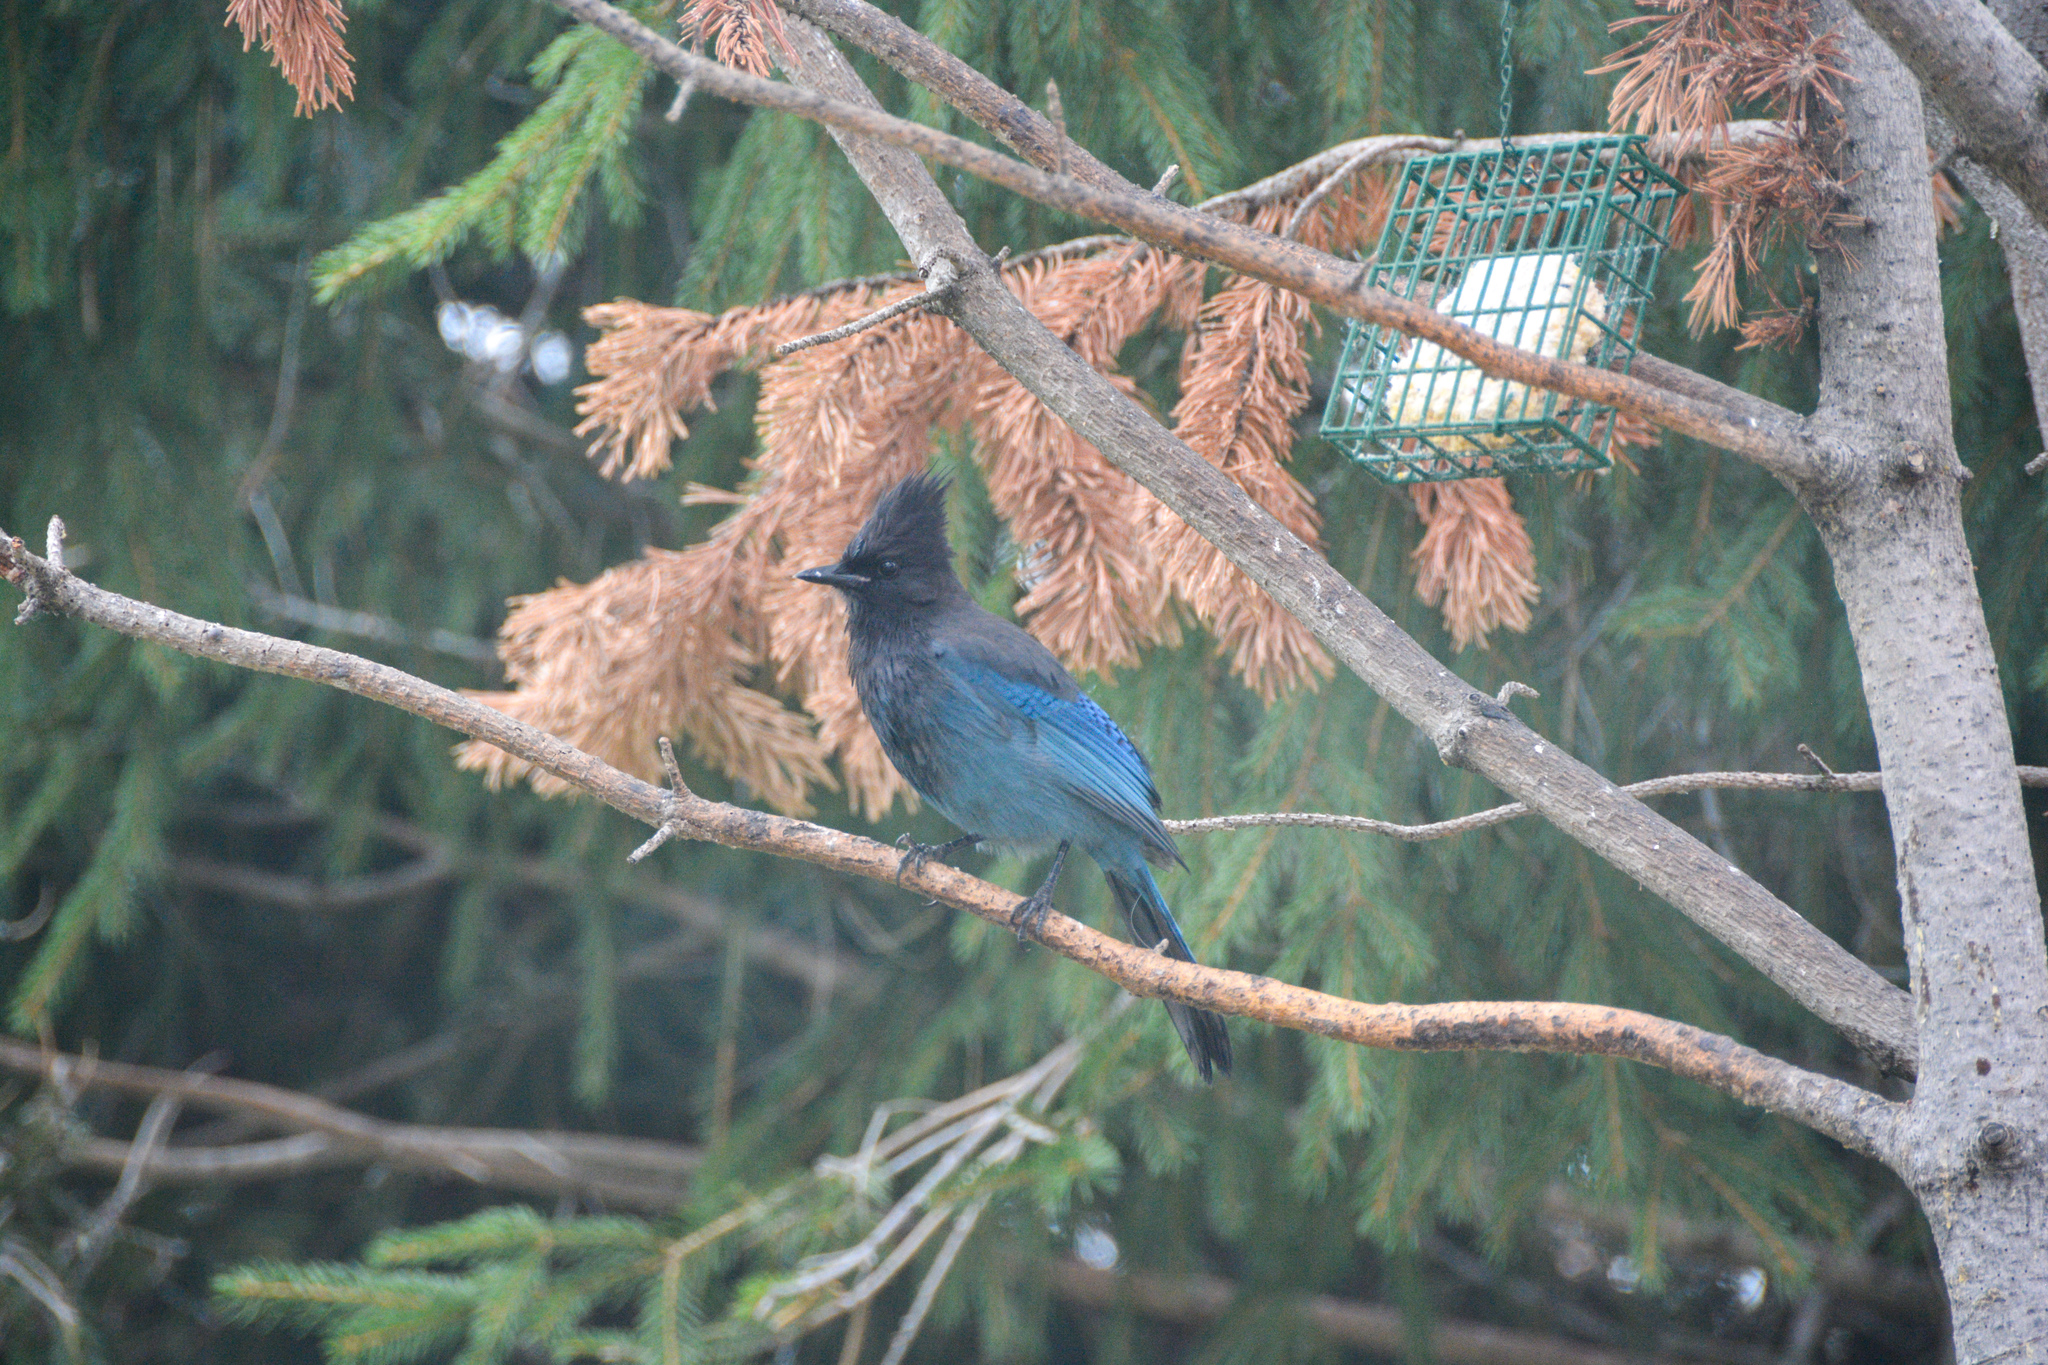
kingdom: Animalia
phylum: Chordata
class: Aves
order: Passeriformes
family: Corvidae
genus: Cyanocitta
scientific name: Cyanocitta stelleri
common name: Steller's jay
